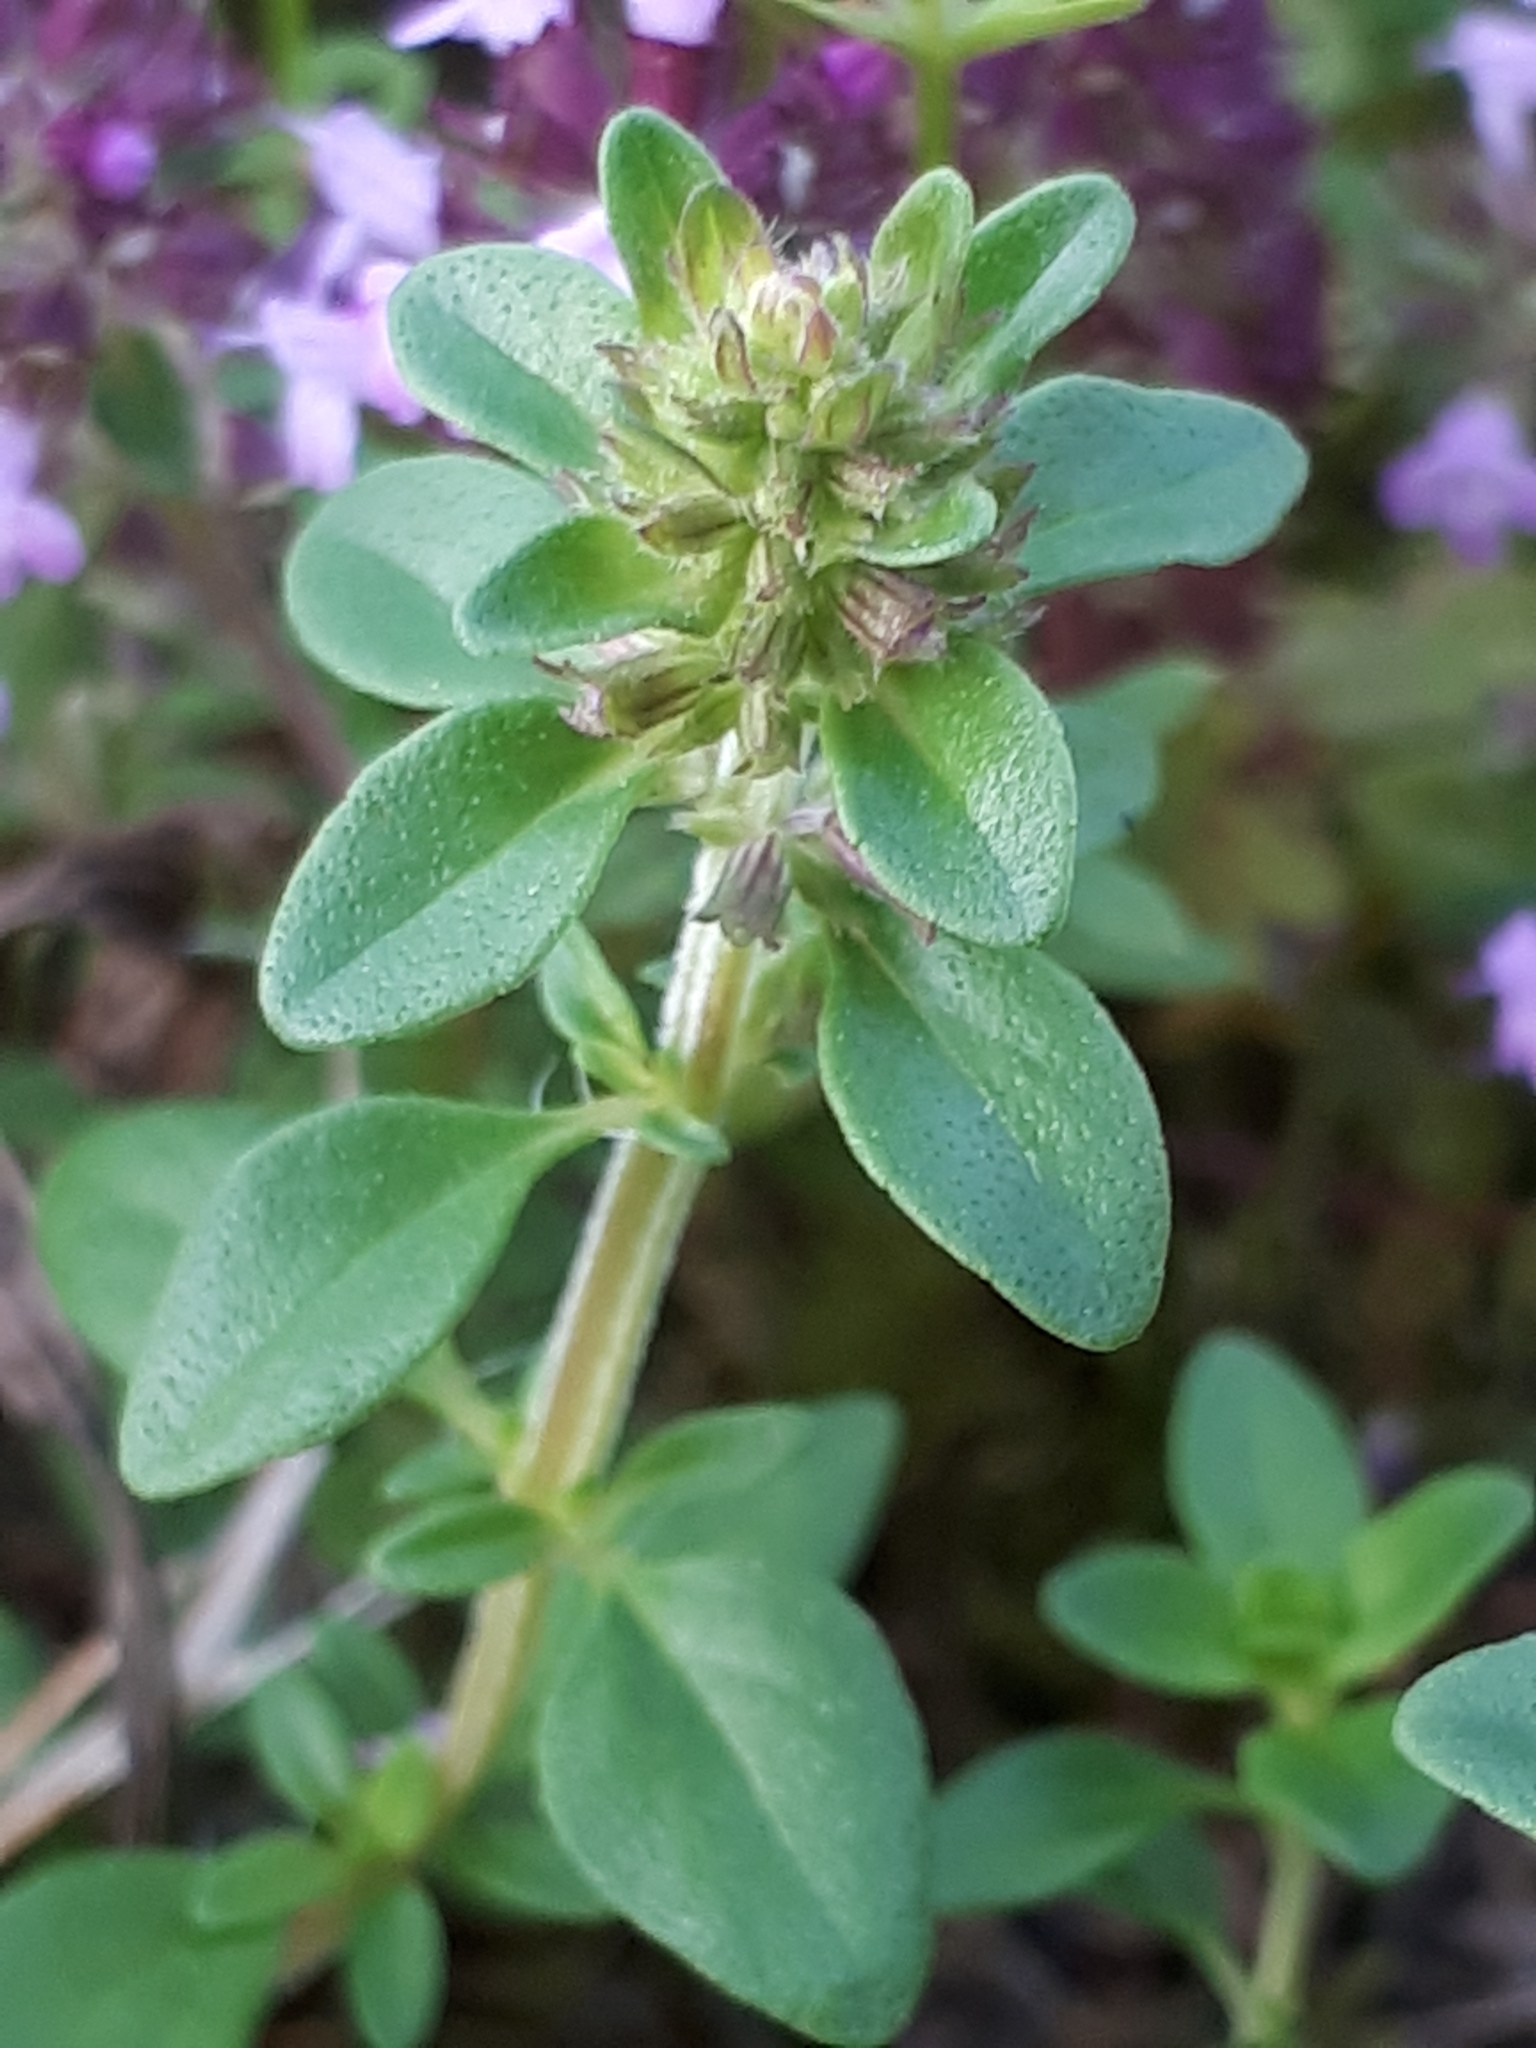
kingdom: Plantae
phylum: Tracheophyta
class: Magnoliopsida
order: Lamiales
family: Lamiaceae
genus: Thymus
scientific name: Thymus pulegioides
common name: Large thyme
